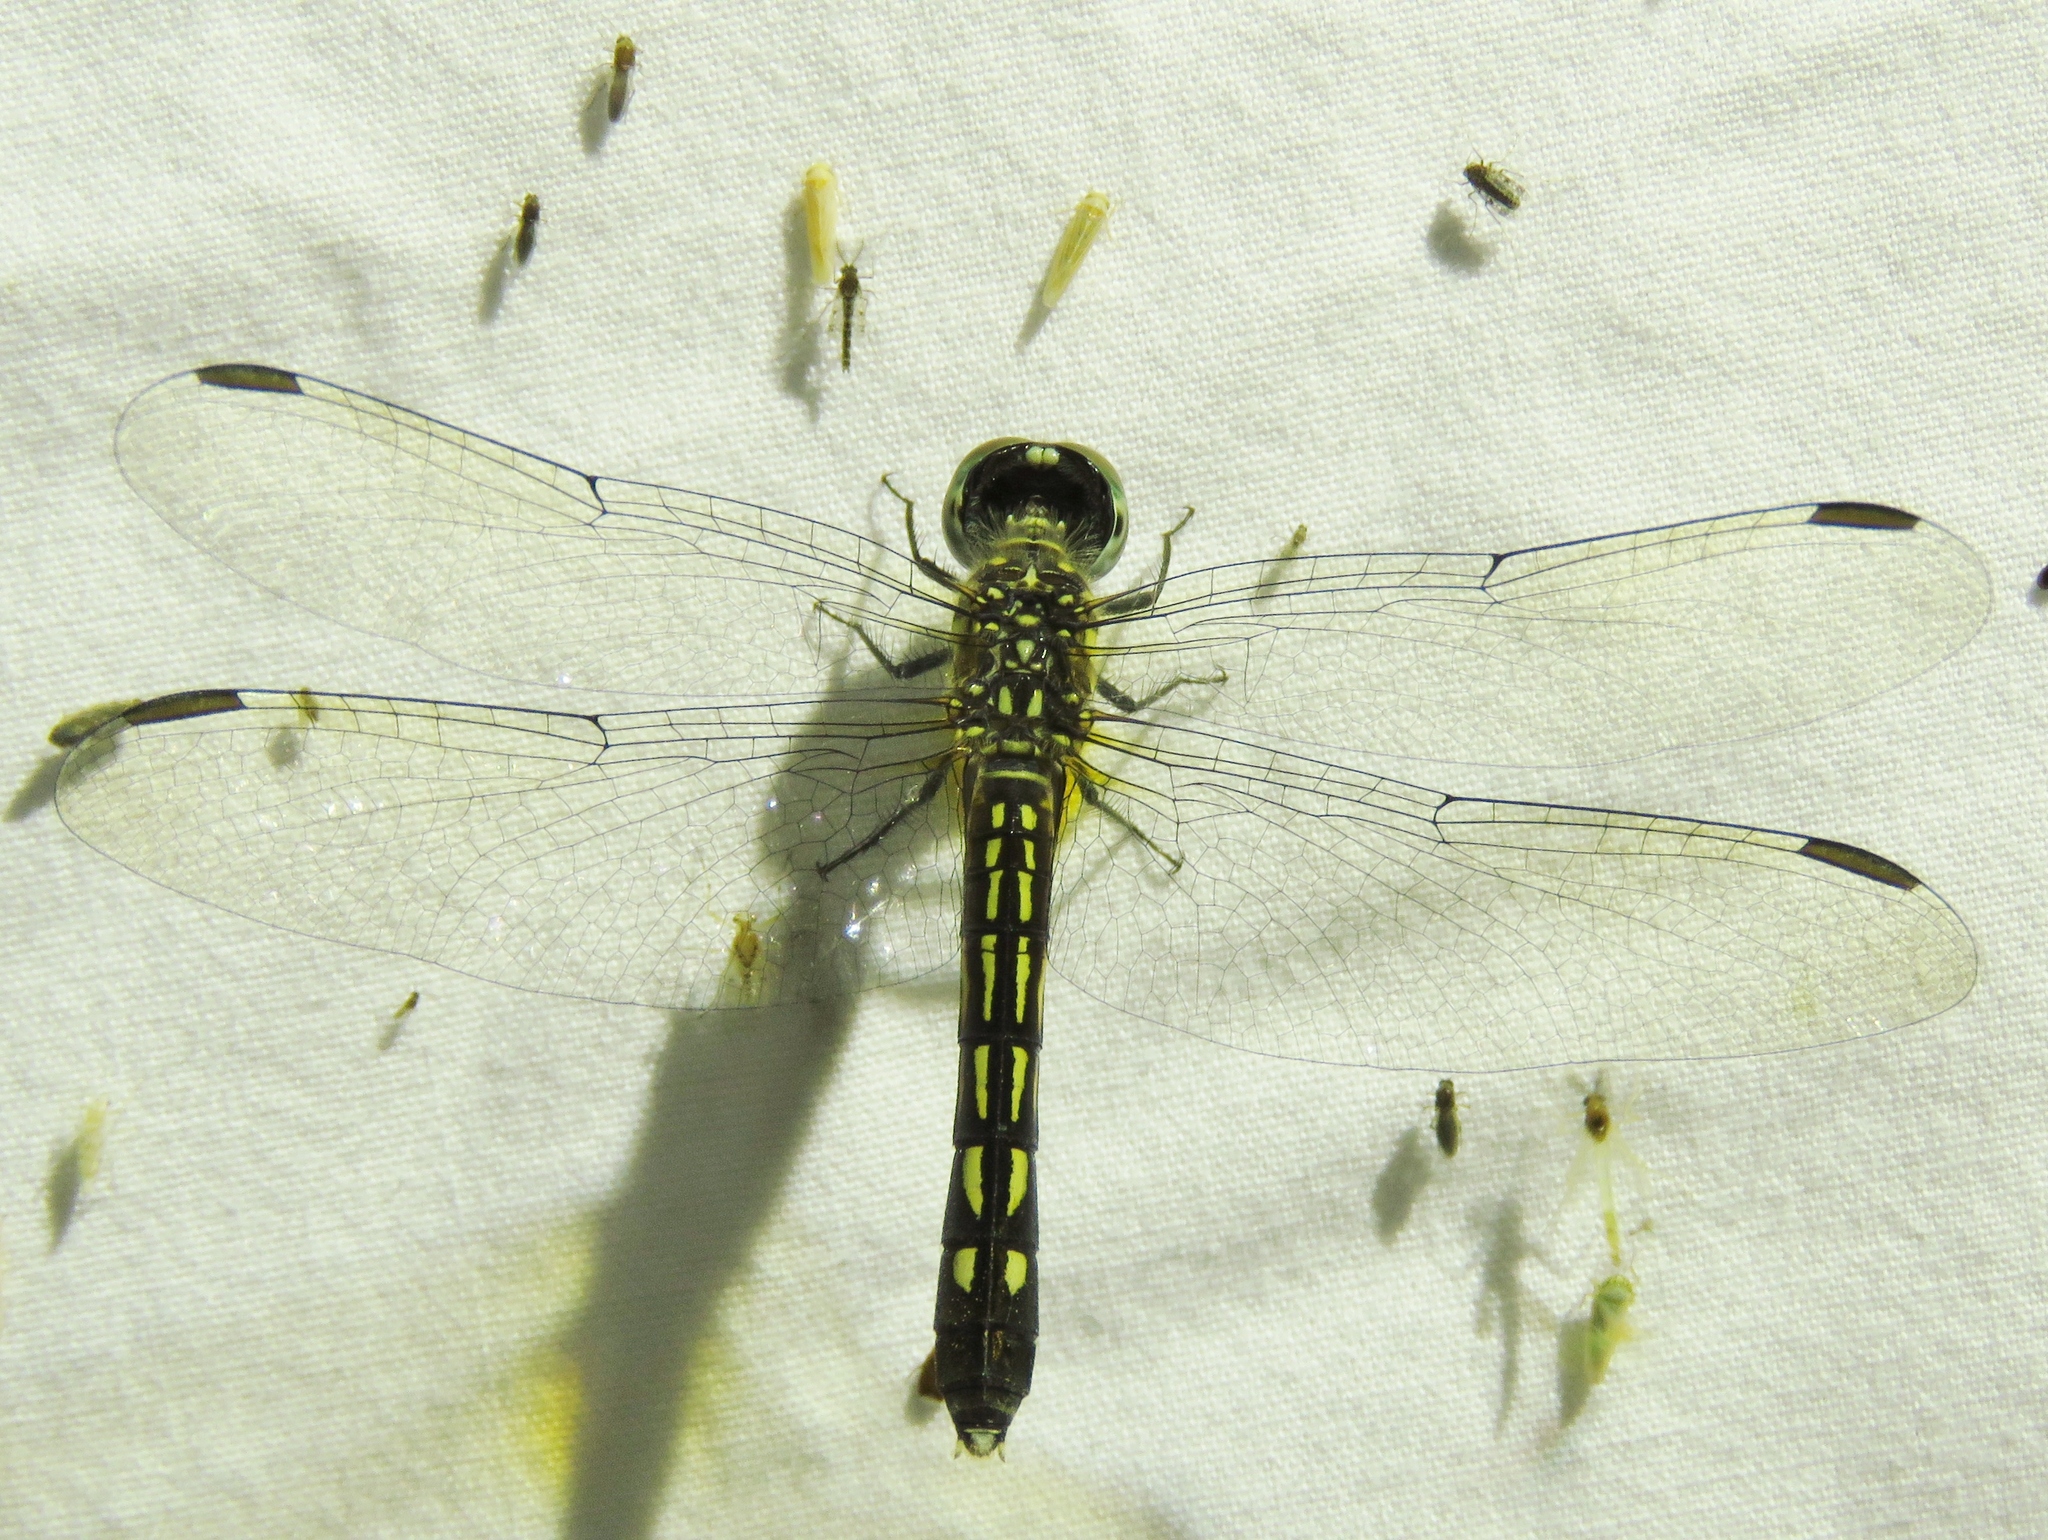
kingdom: Animalia
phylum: Arthropoda
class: Insecta
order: Odonata
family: Libellulidae
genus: Pachydiplax
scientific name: Pachydiplax longipennis
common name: Blue dasher
